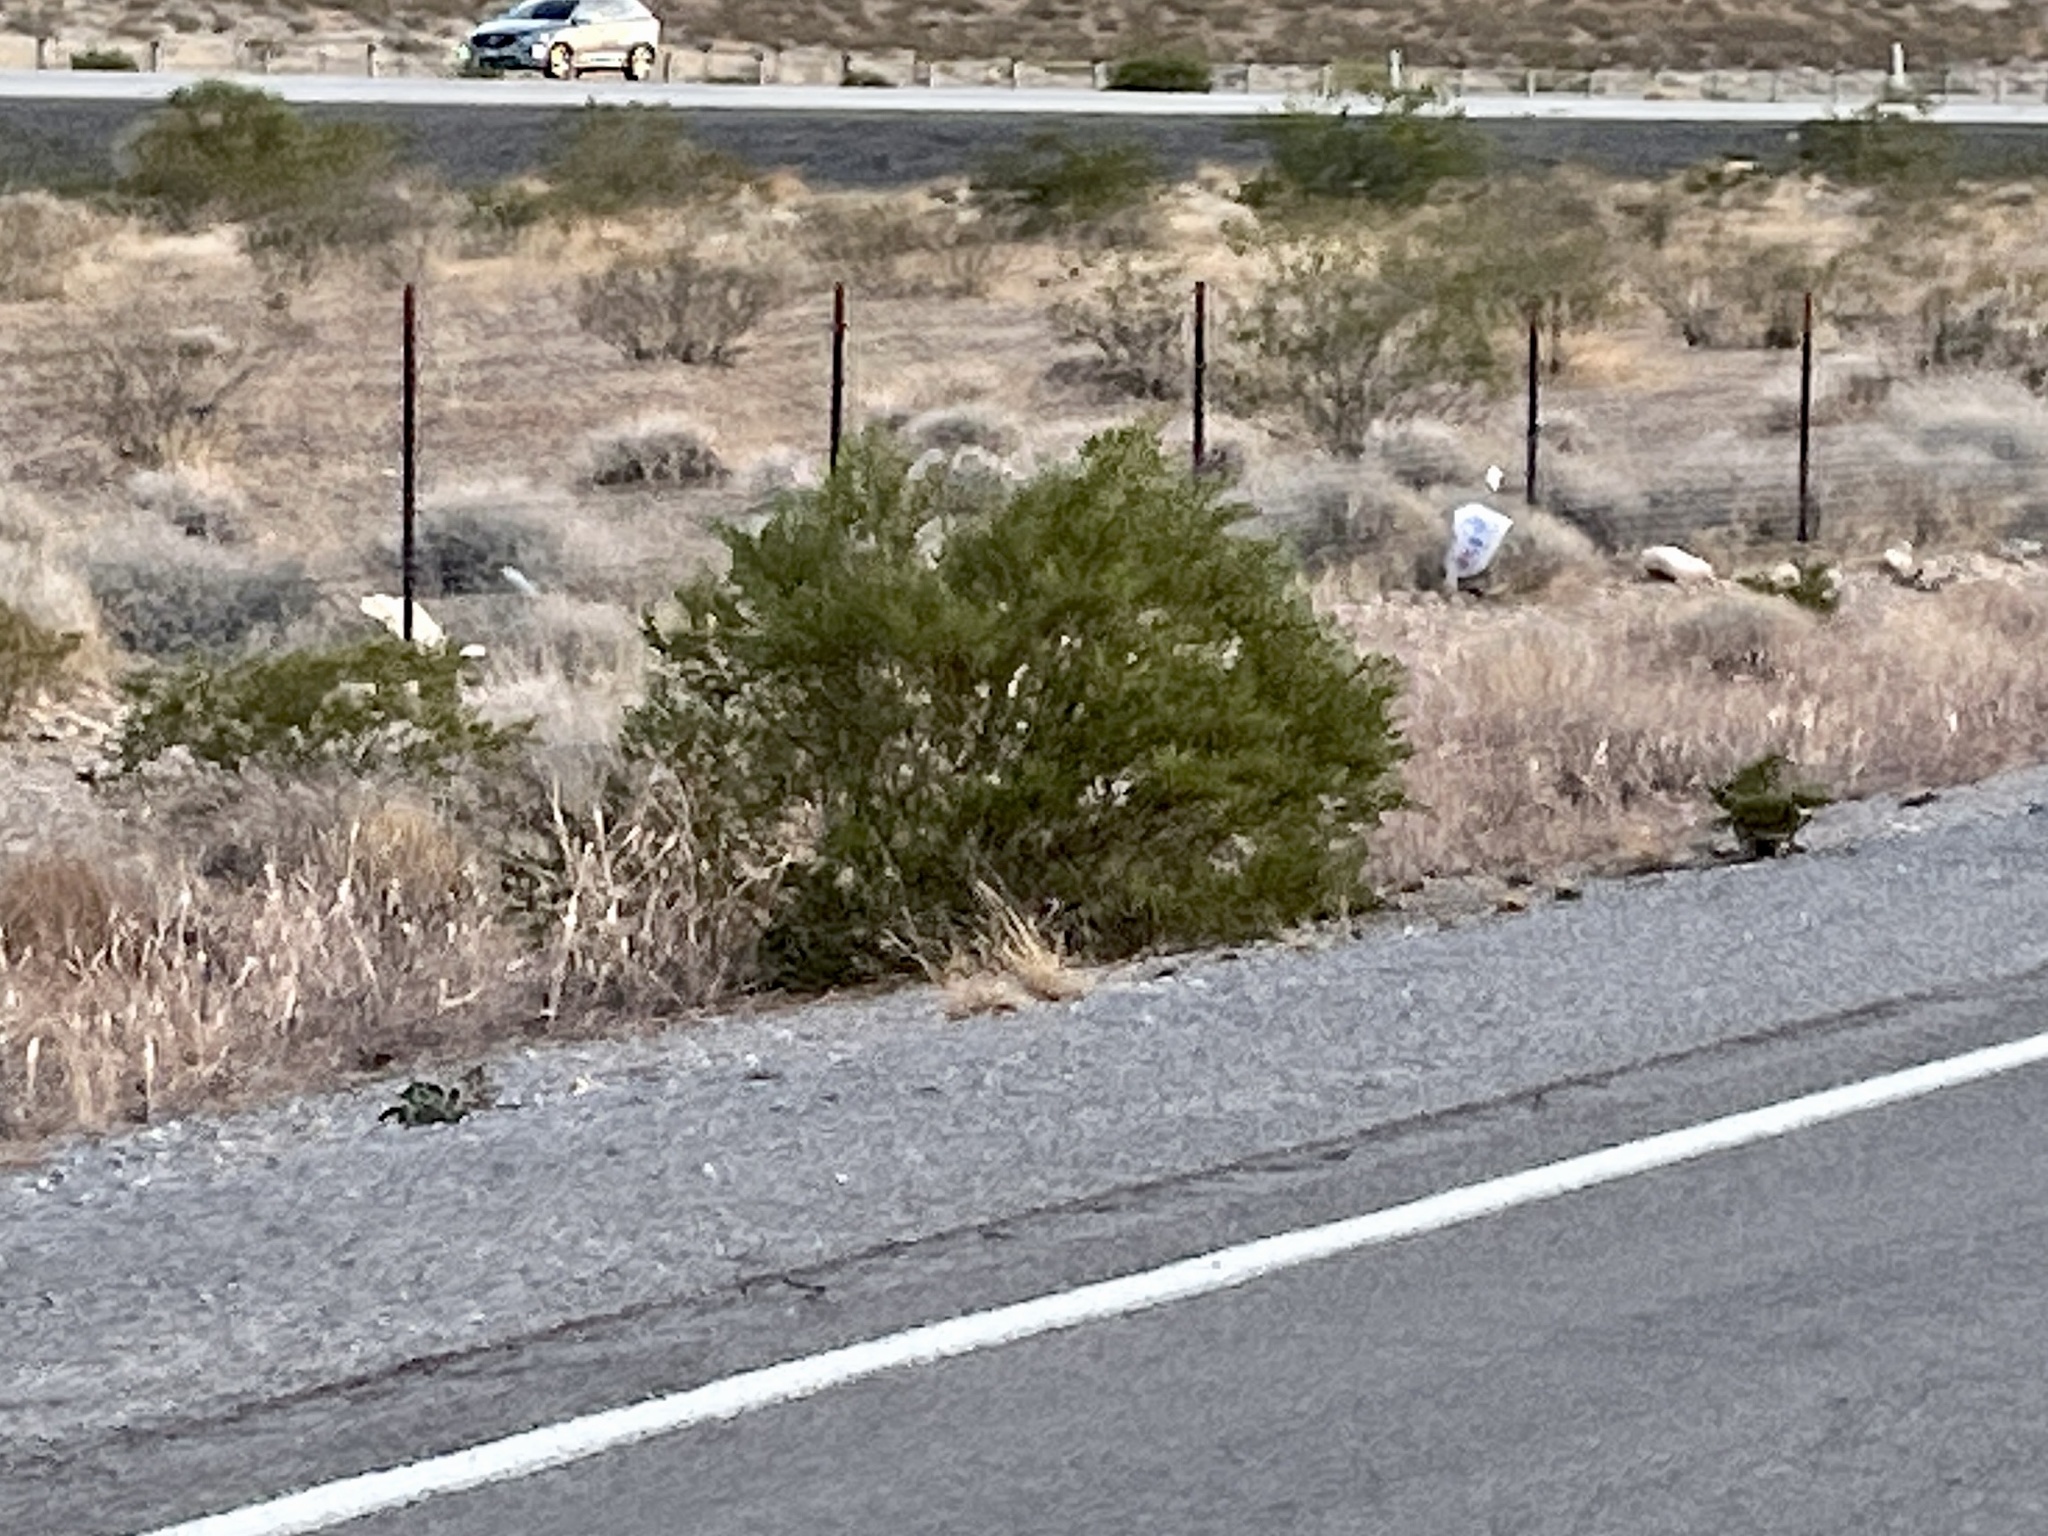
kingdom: Plantae
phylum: Tracheophyta
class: Magnoliopsida
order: Zygophyllales
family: Zygophyllaceae
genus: Larrea
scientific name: Larrea tridentata
